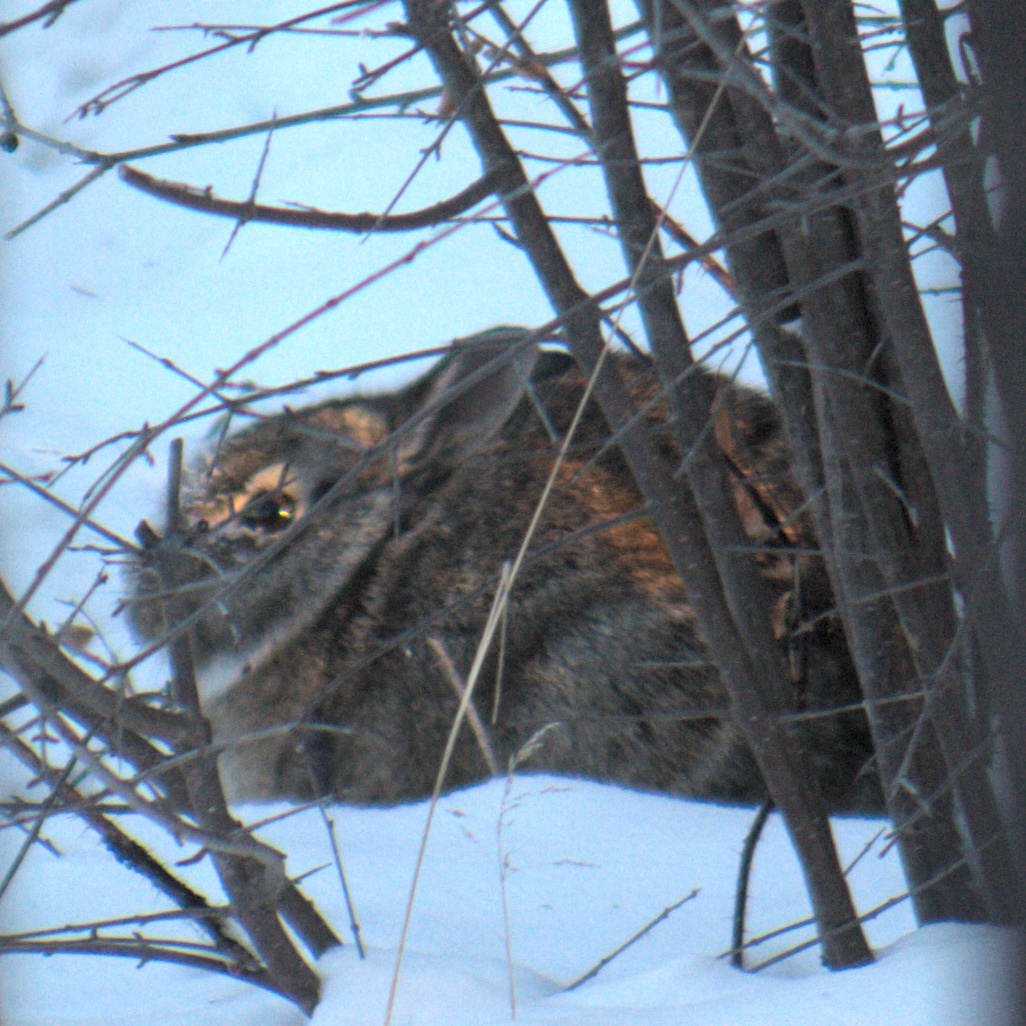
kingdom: Animalia
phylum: Chordata
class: Mammalia
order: Lagomorpha
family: Leporidae
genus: Sylvilagus
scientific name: Sylvilagus floridanus
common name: Eastern cottontail
